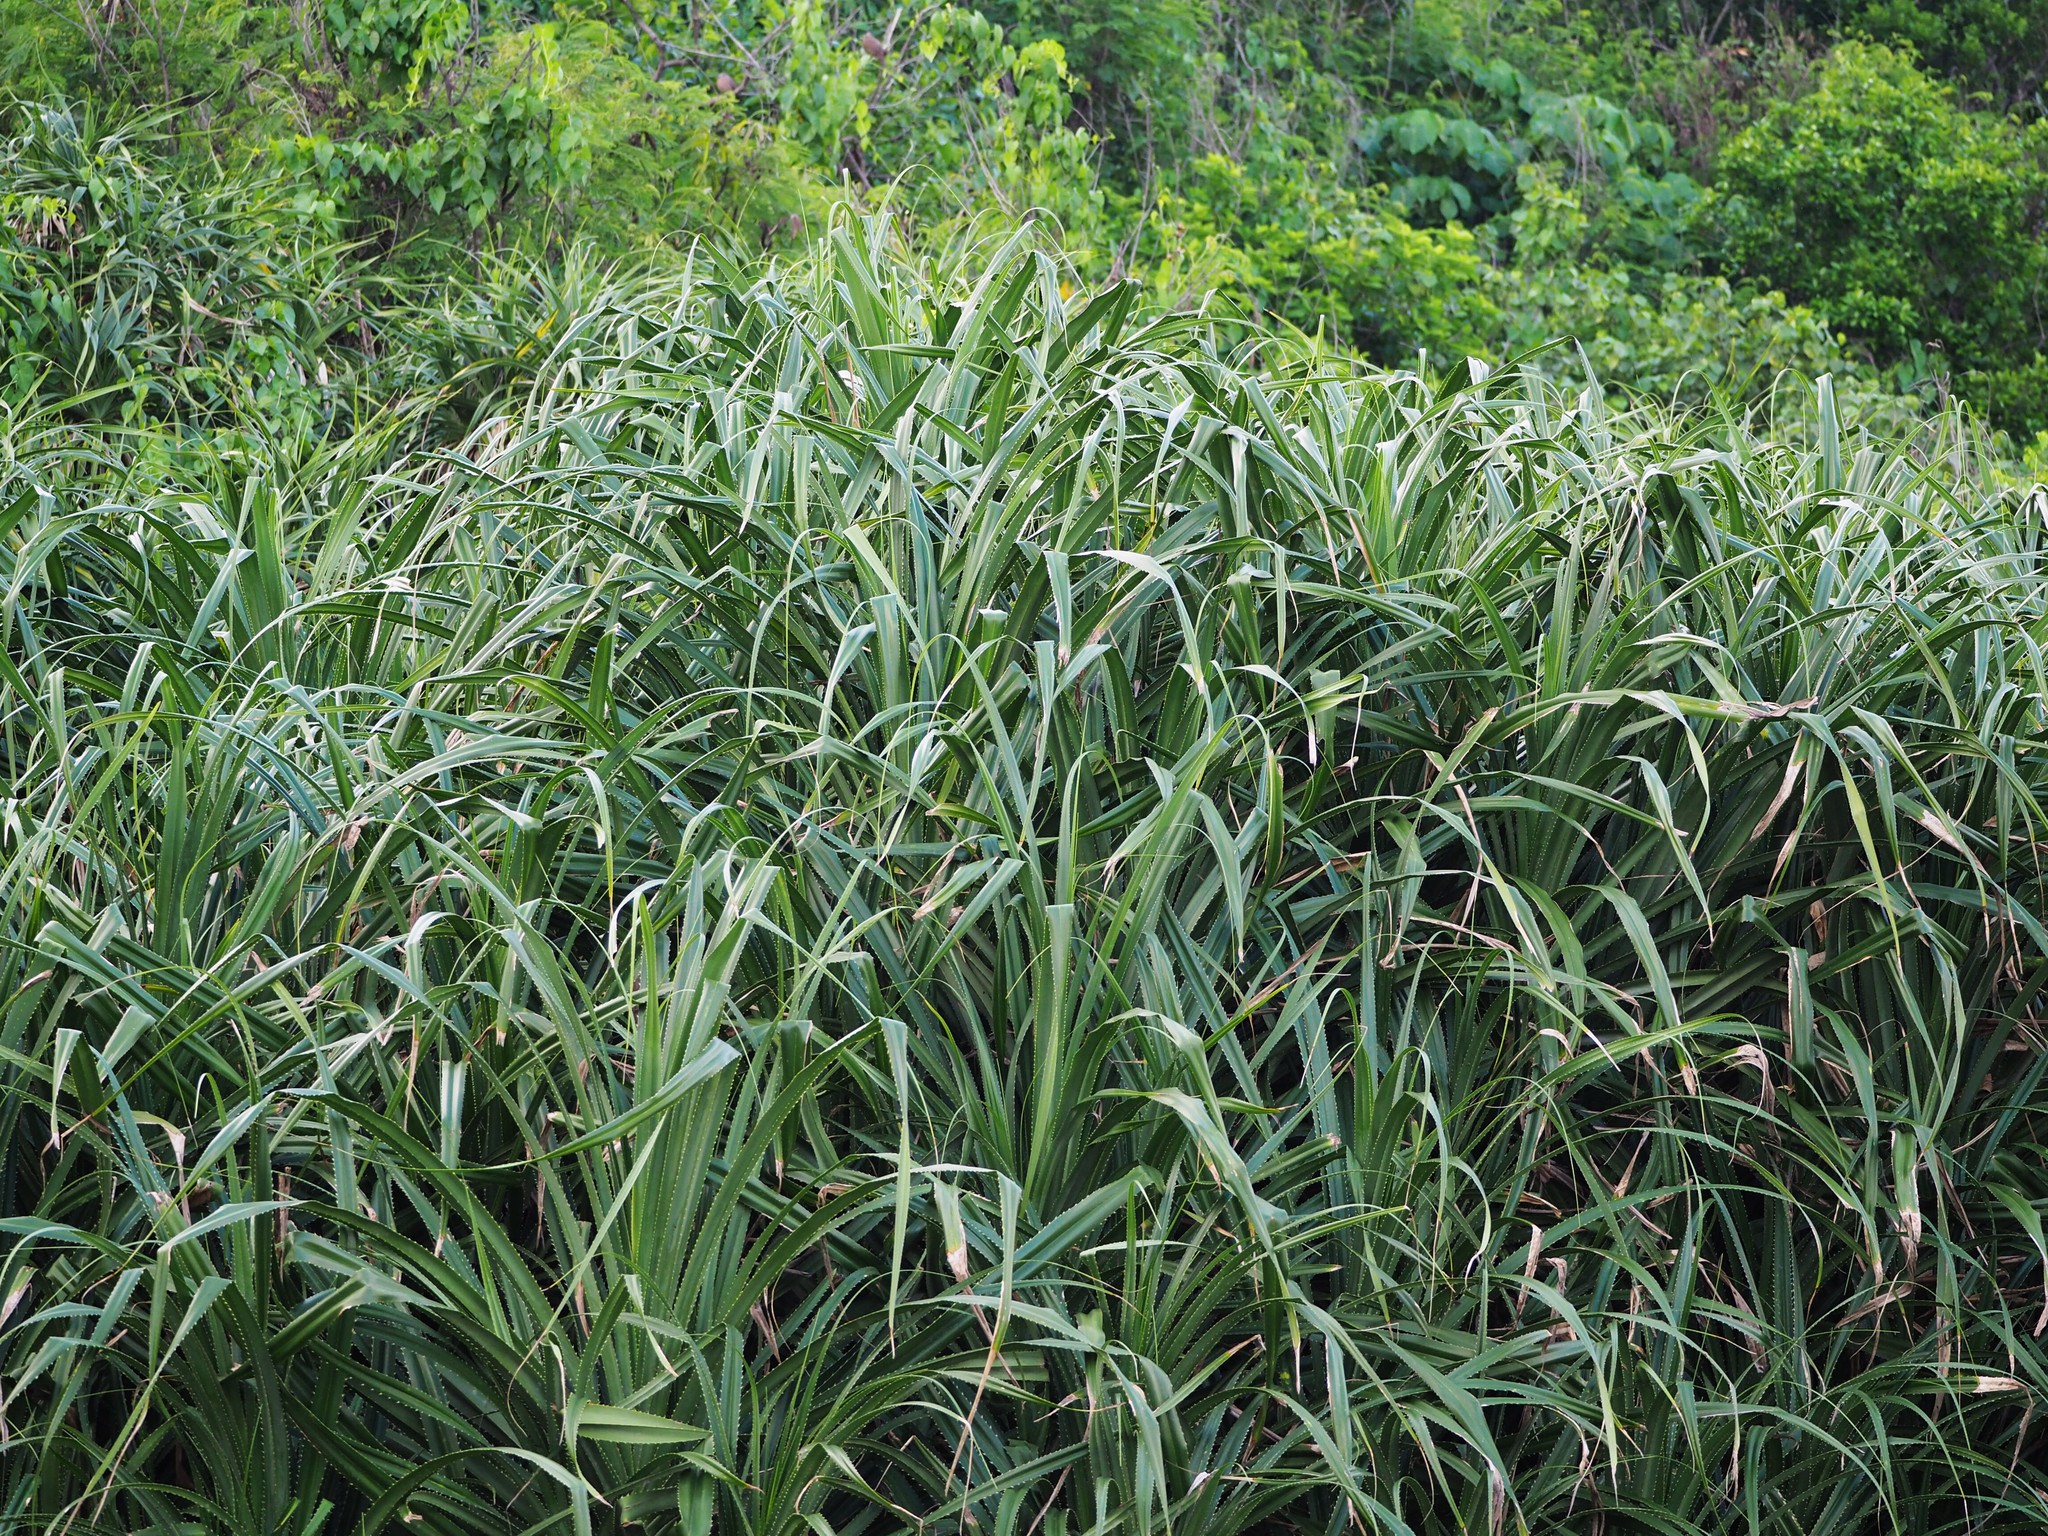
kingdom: Plantae
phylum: Tracheophyta
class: Liliopsida
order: Pandanales
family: Pandanaceae
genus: Pandanus
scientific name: Pandanus odorifer
